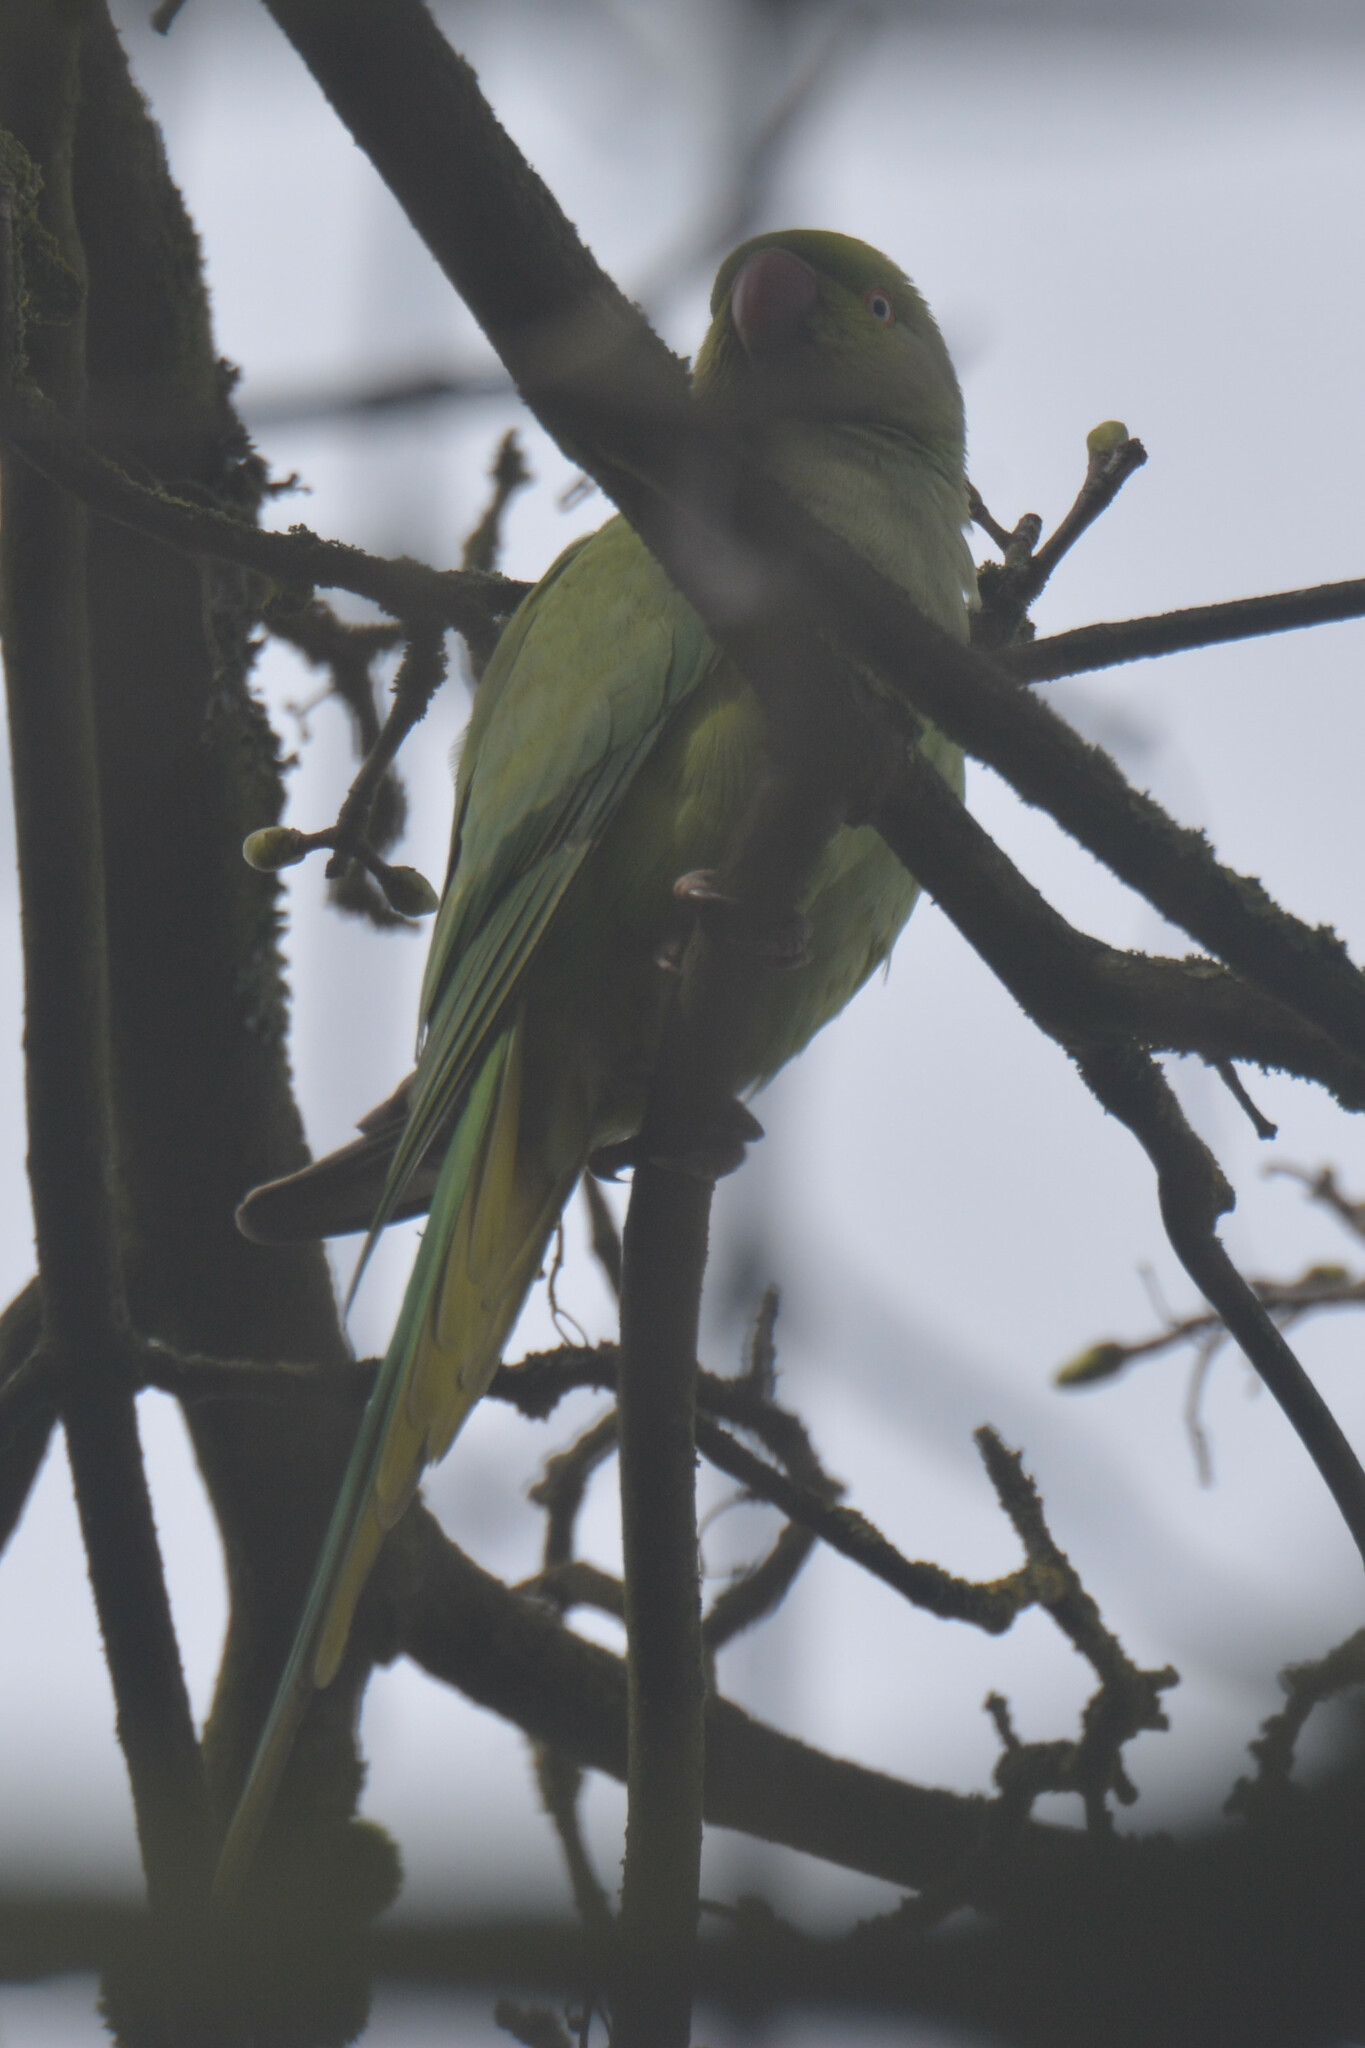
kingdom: Animalia
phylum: Chordata
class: Aves
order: Psittaciformes
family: Psittacidae
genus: Psittacula
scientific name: Psittacula krameri
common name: Rose-ringed parakeet
